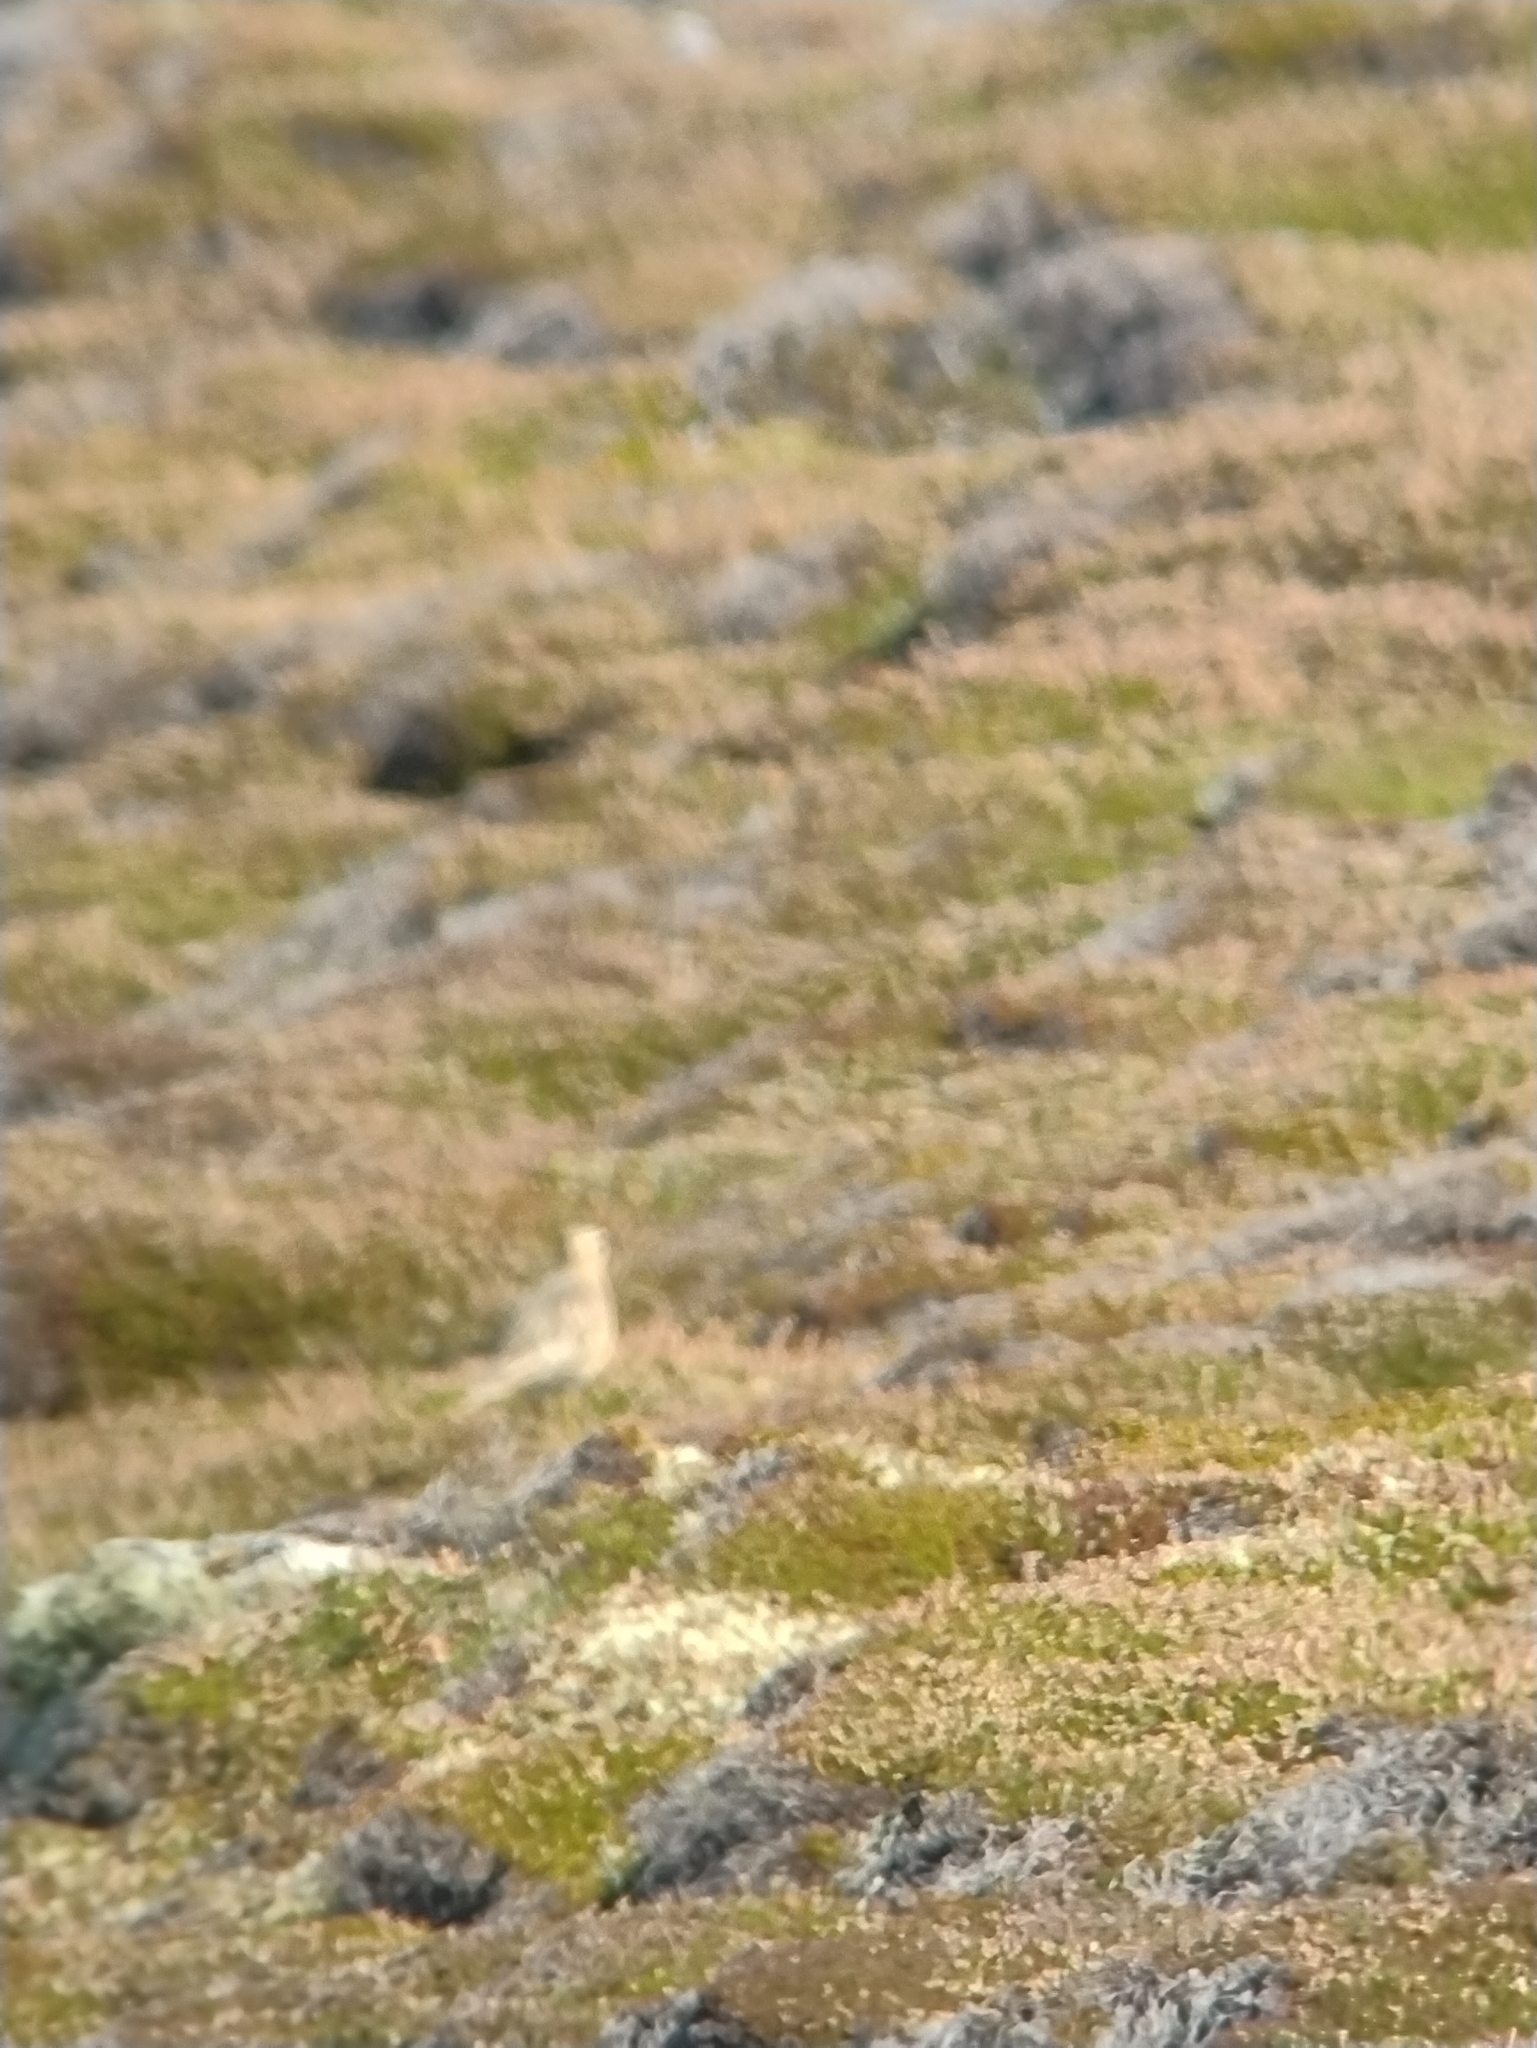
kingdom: Animalia
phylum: Chordata
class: Aves
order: Charadriiformes
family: Charadriidae
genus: Charadrius
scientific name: Charadrius morinellus
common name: Eurasian dotterel
